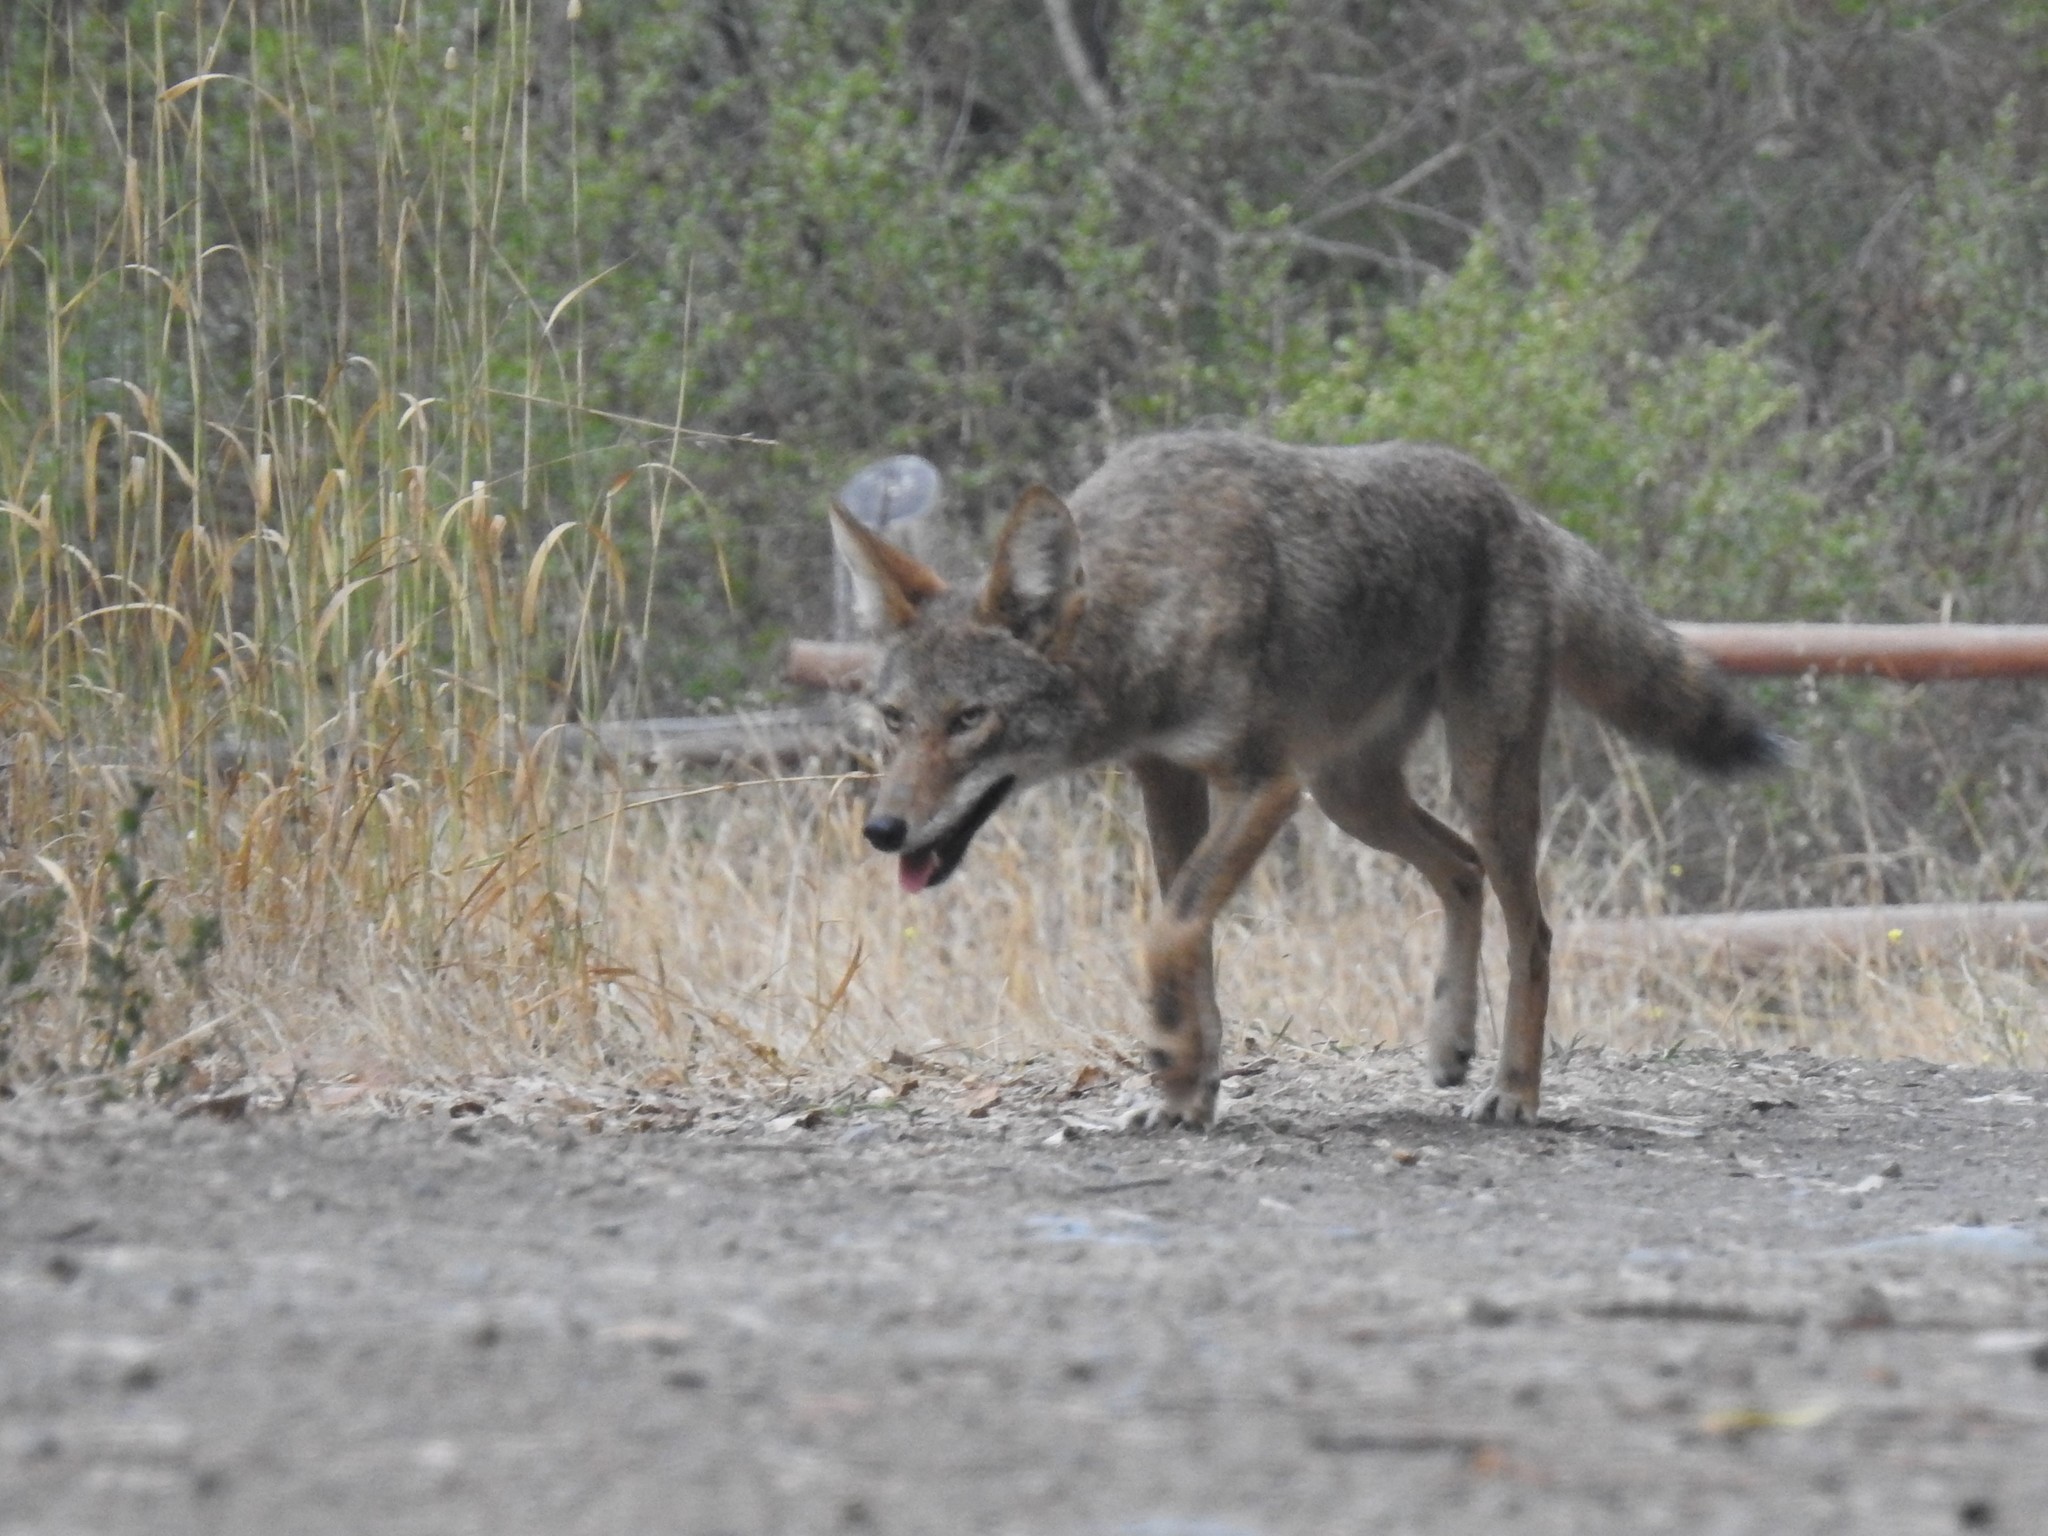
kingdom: Animalia
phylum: Chordata
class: Mammalia
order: Carnivora
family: Canidae
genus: Canis
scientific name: Canis latrans
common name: Coyote
